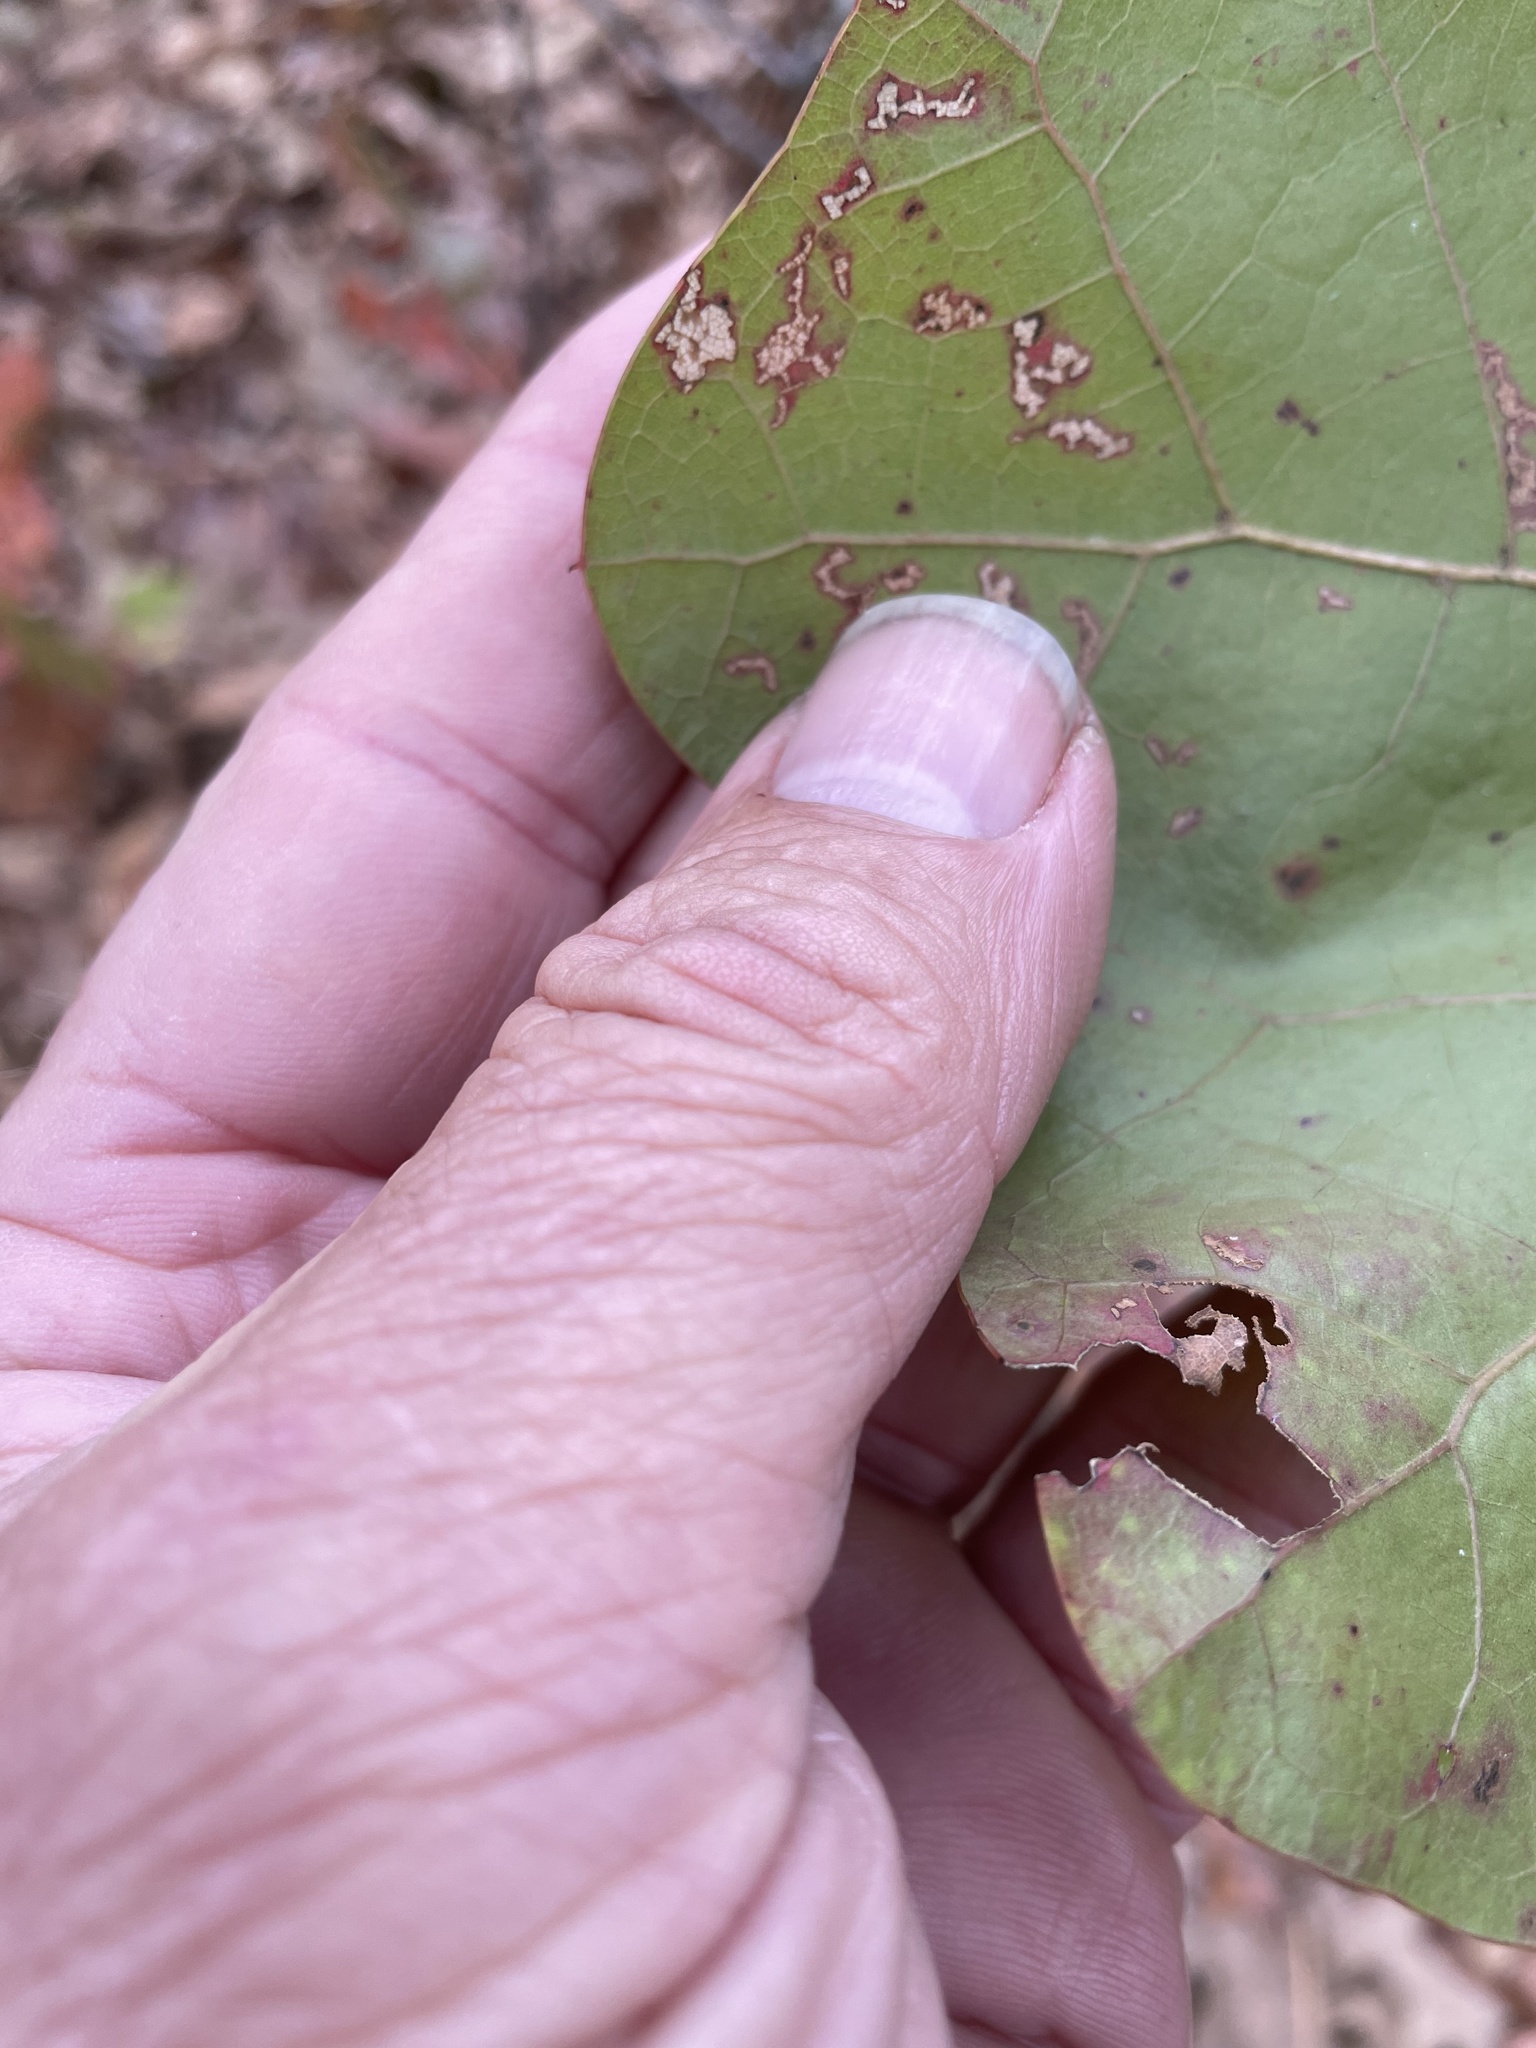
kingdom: Plantae
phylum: Tracheophyta
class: Magnoliopsida
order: Fagales
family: Fagaceae
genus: Quercus
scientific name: Quercus marilandica
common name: Blackjack oak
